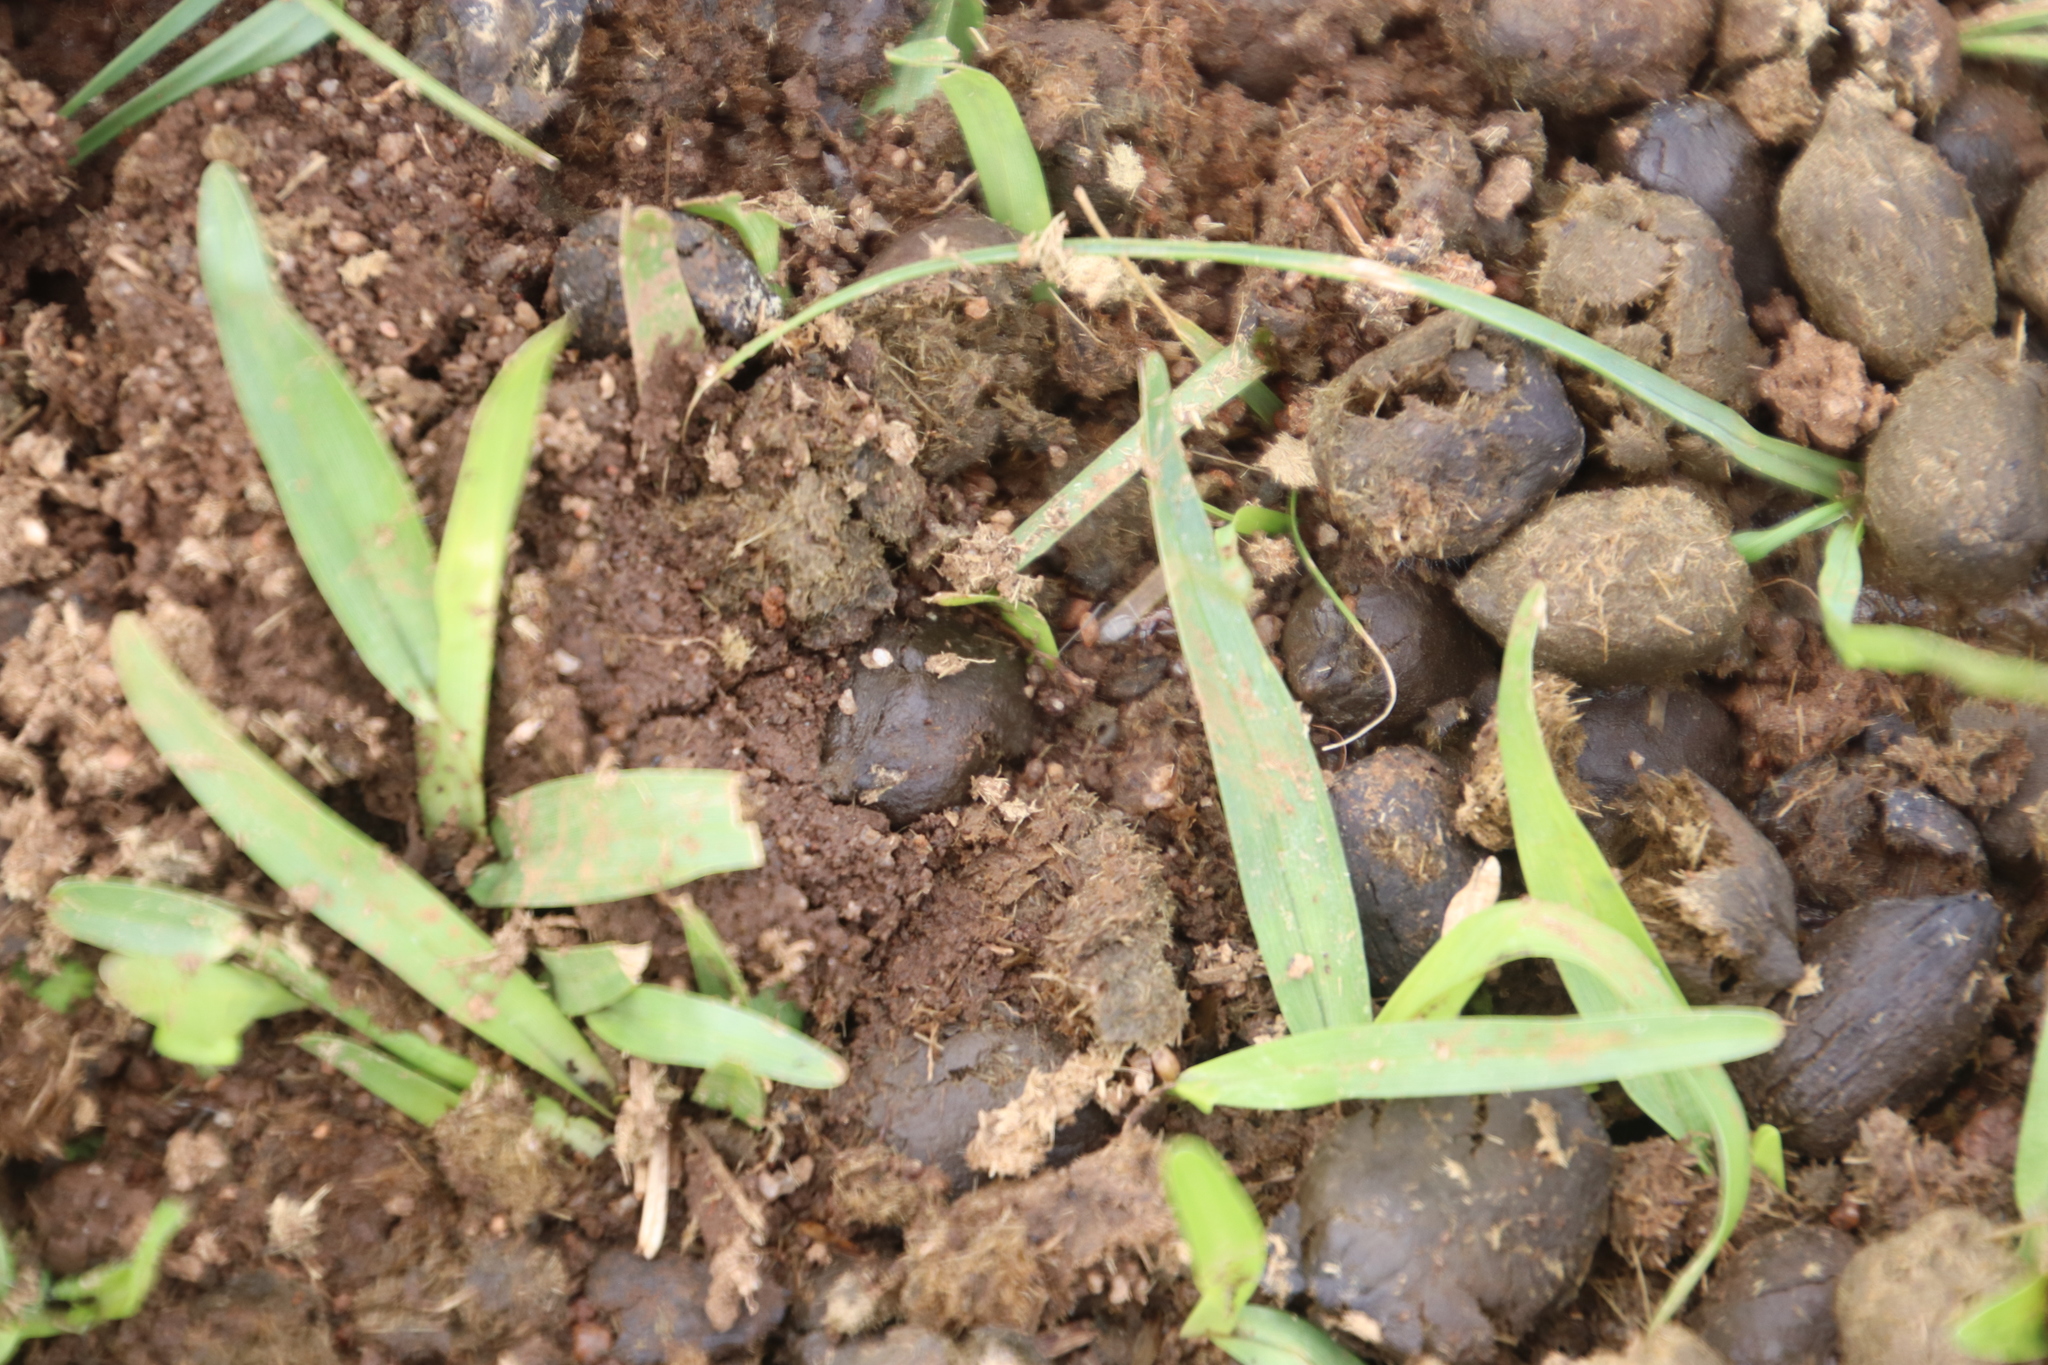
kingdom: Animalia
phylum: Chordata
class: Mammalia
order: Artiodactyla
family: Bovidae
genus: Damaliscus
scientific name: Damaliscus pygargus
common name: Bontebok
